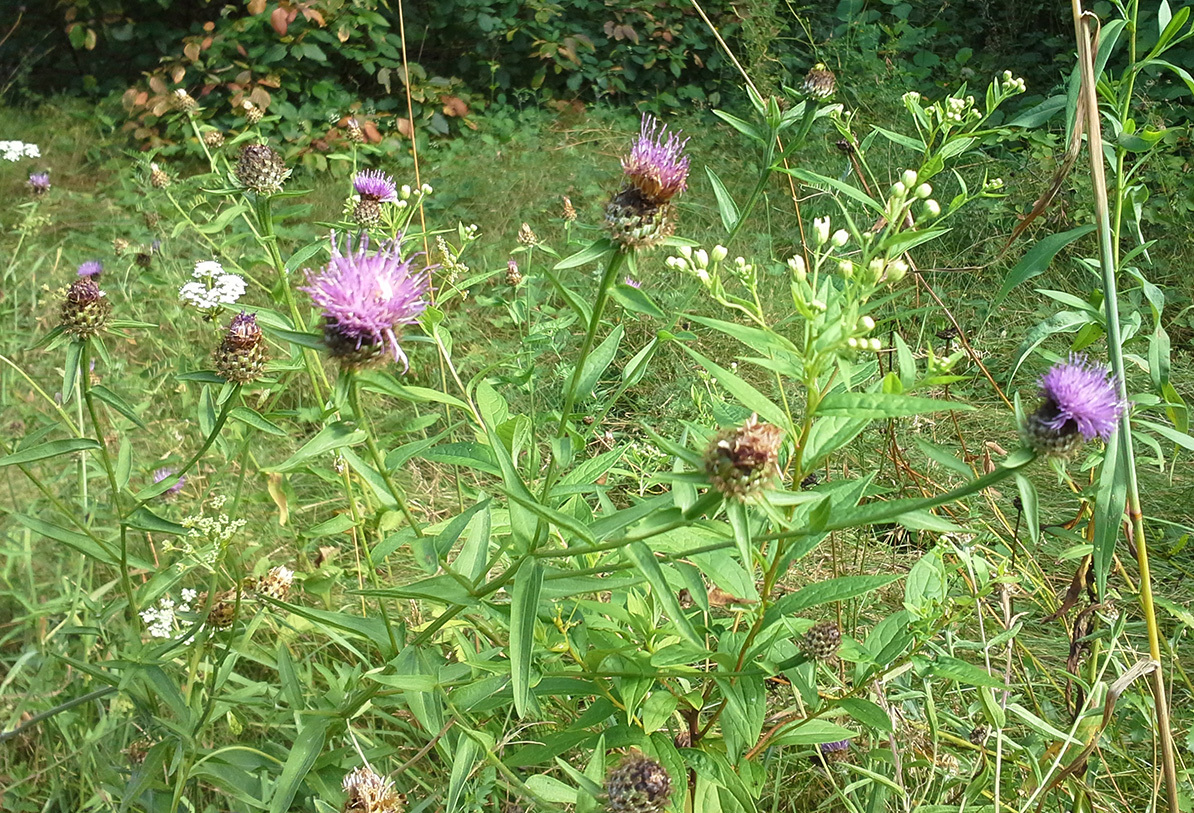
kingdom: Plantae
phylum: Tracheophyta
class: Magnoliopsida
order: Asterales
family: Asteraceae
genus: Centaurea
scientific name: Centaurea nigra
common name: Lesser knapweed
